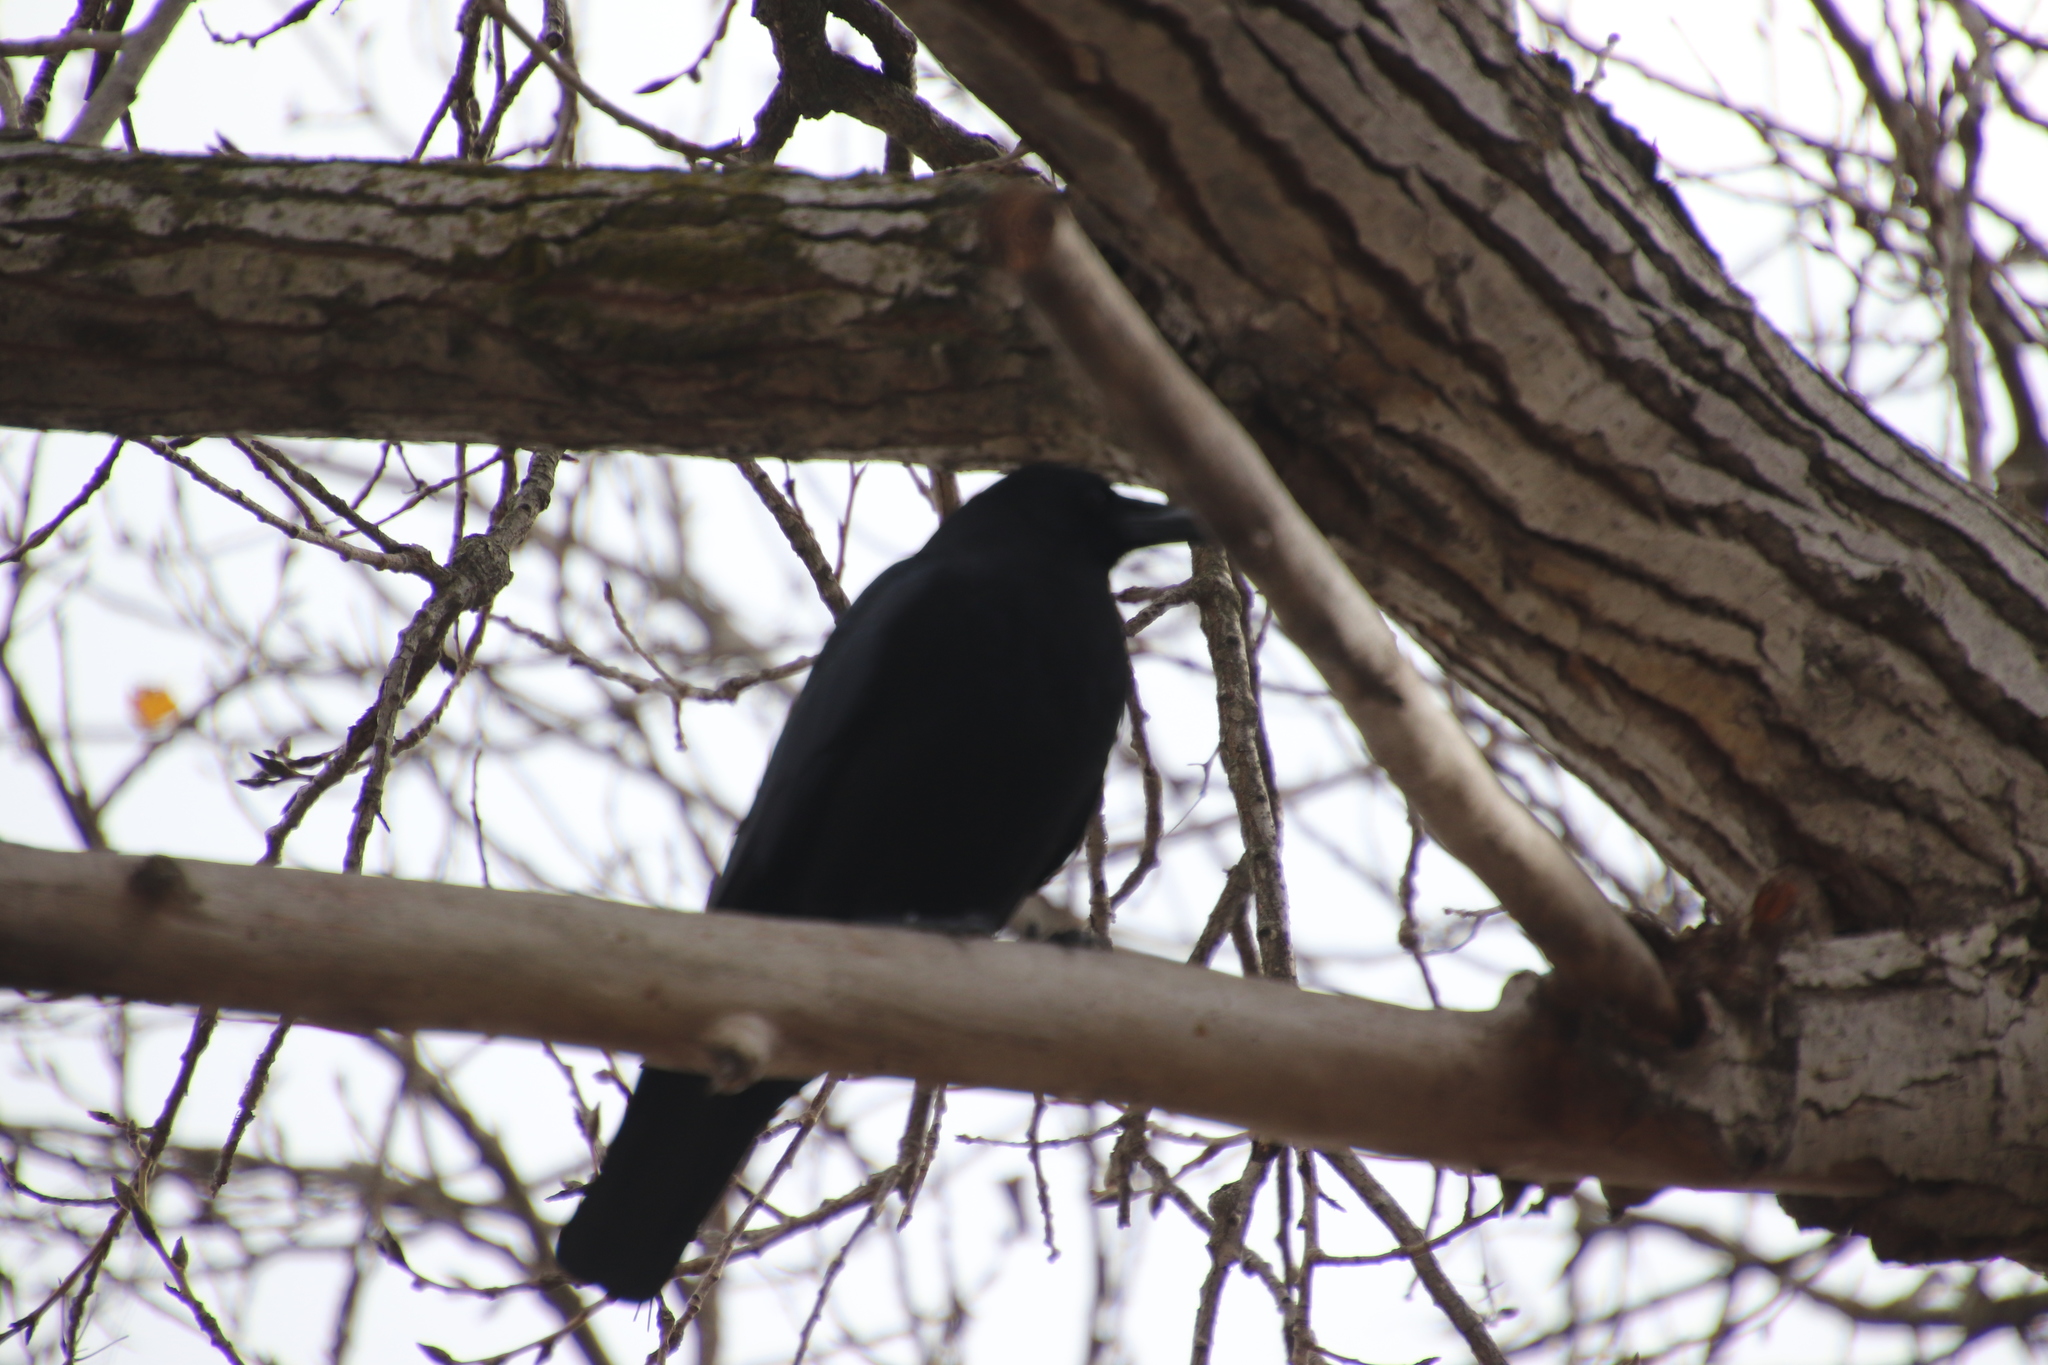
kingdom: Animalia
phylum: Chordata
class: Aves
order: Passeriformes
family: Corvidae
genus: Corvus
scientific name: Corvus brachyrhynchos
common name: American crow
